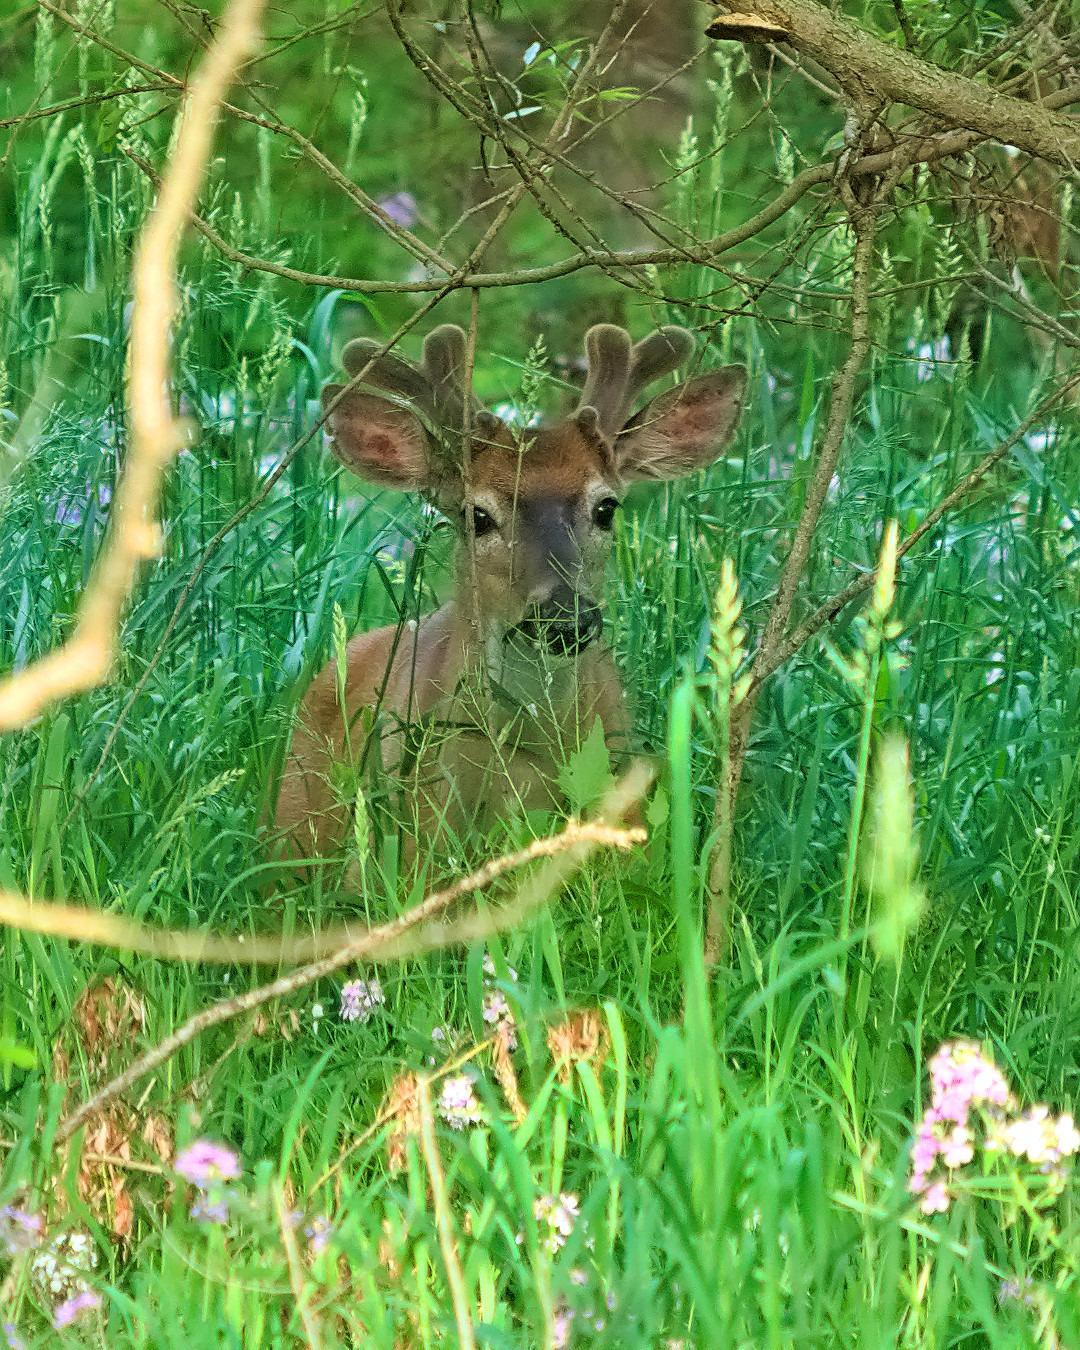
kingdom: Animalia
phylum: Chordata
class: Mammalia
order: Artiodactyla
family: Cervidae
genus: Odocoileus
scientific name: Odocoileus virginianus
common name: White-tailed deer
